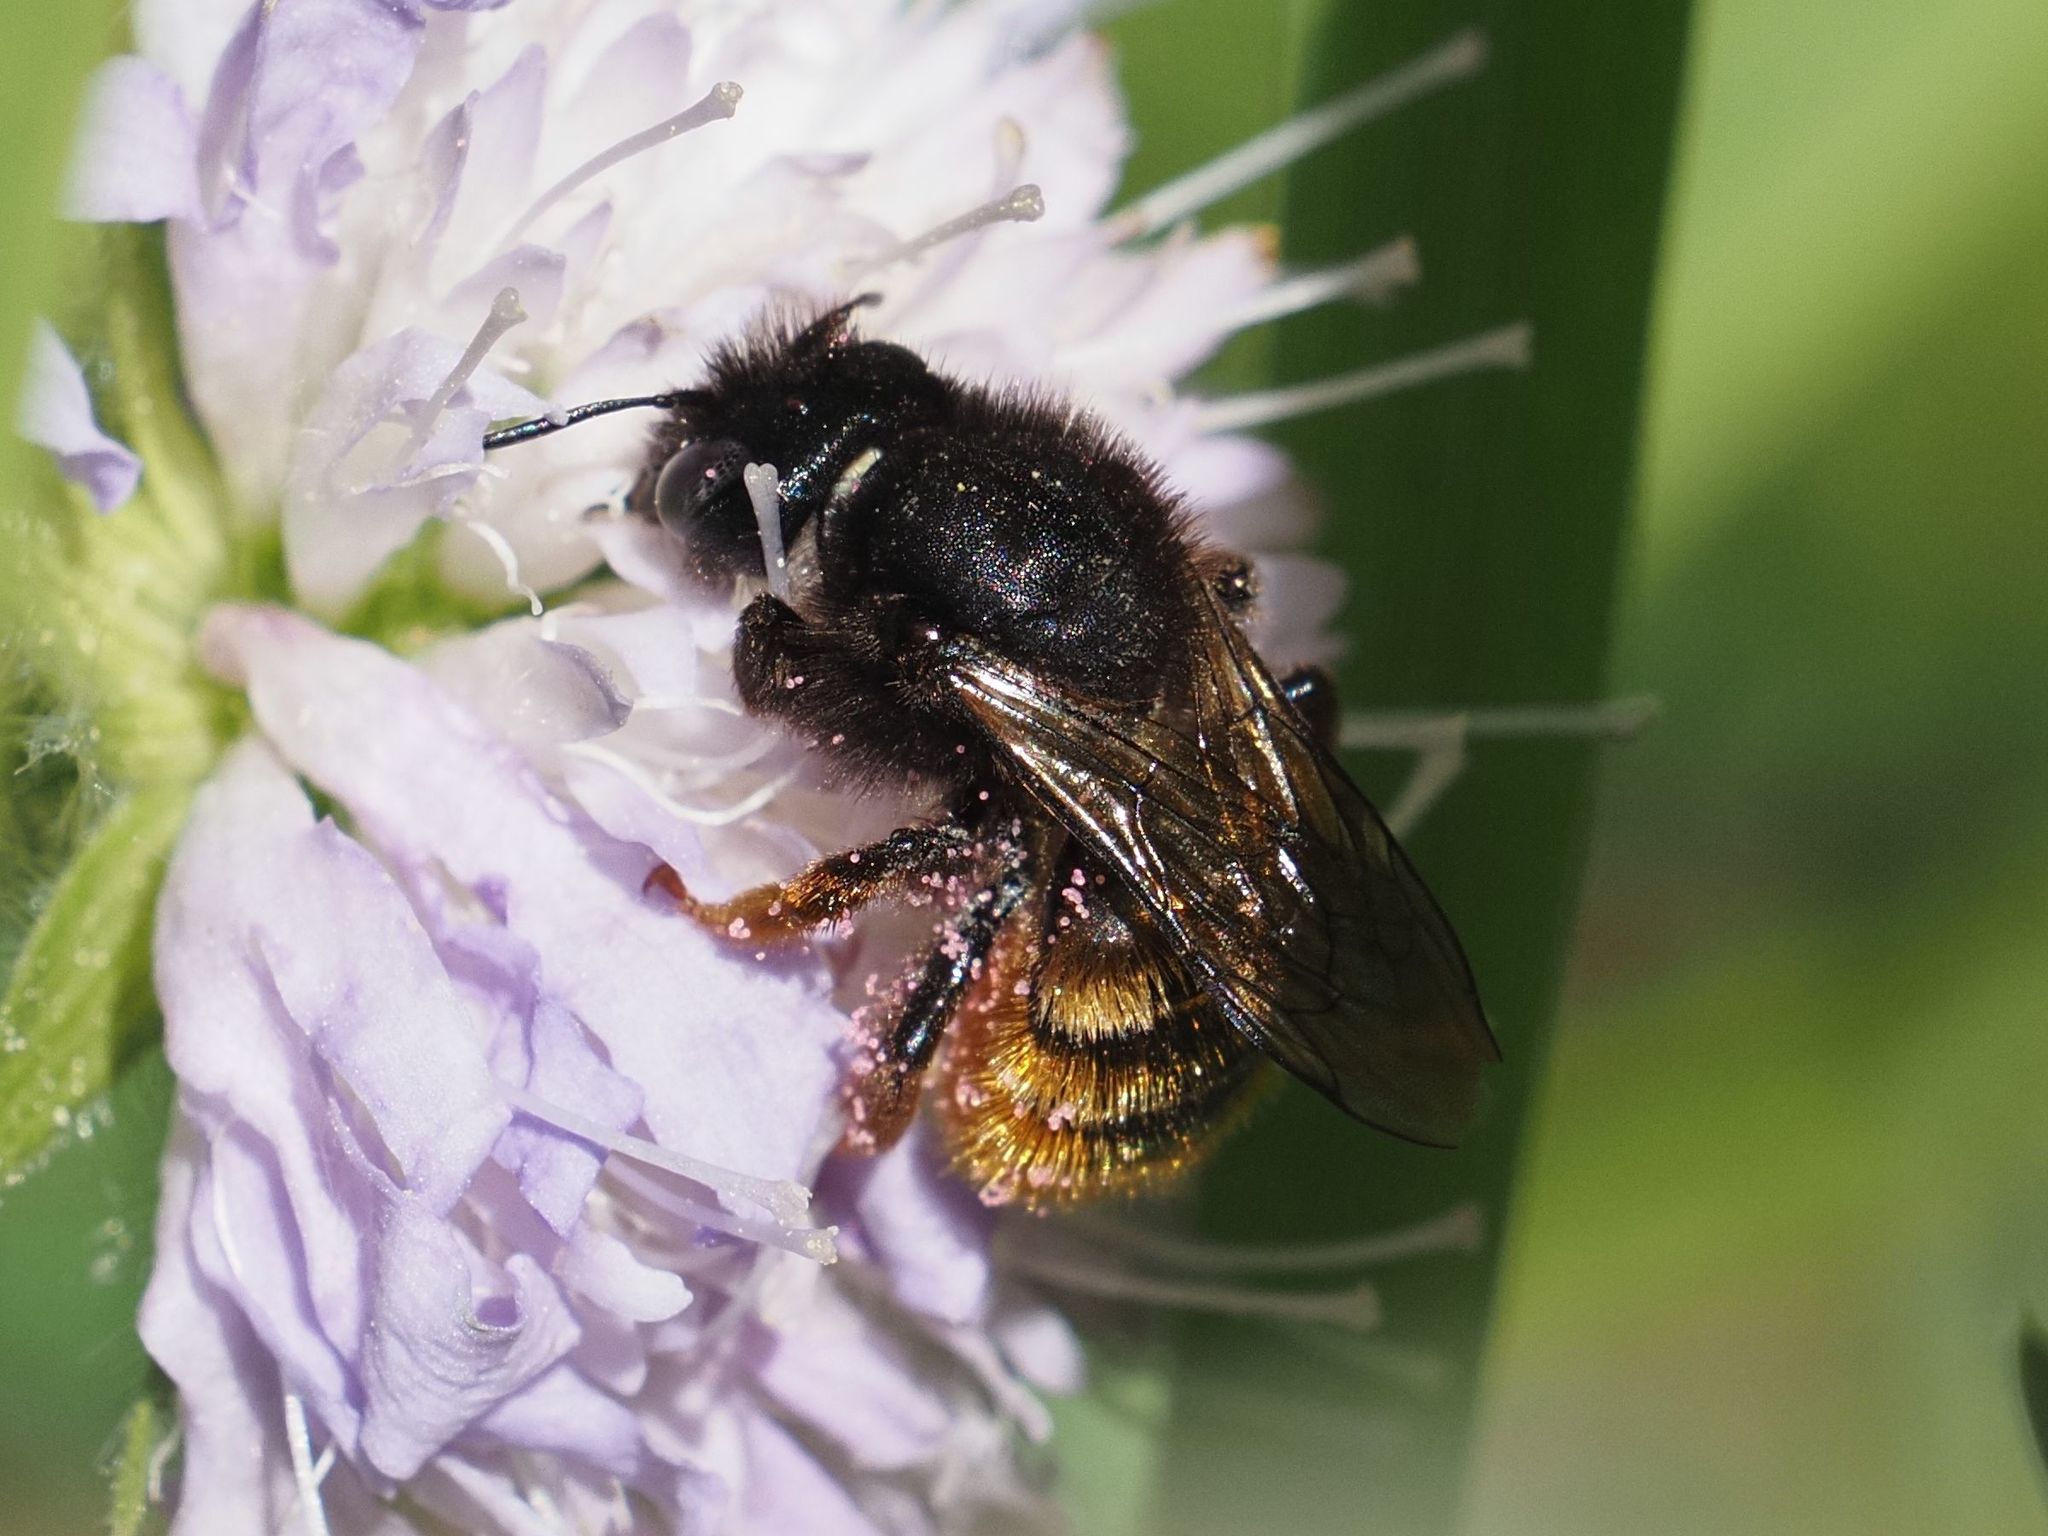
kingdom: Animalia
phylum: Arthropoda
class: Insecta
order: Hymenoptera
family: Megachilidae
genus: Osmia
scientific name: Osmia bicolor
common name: Red-tailed mason bee
